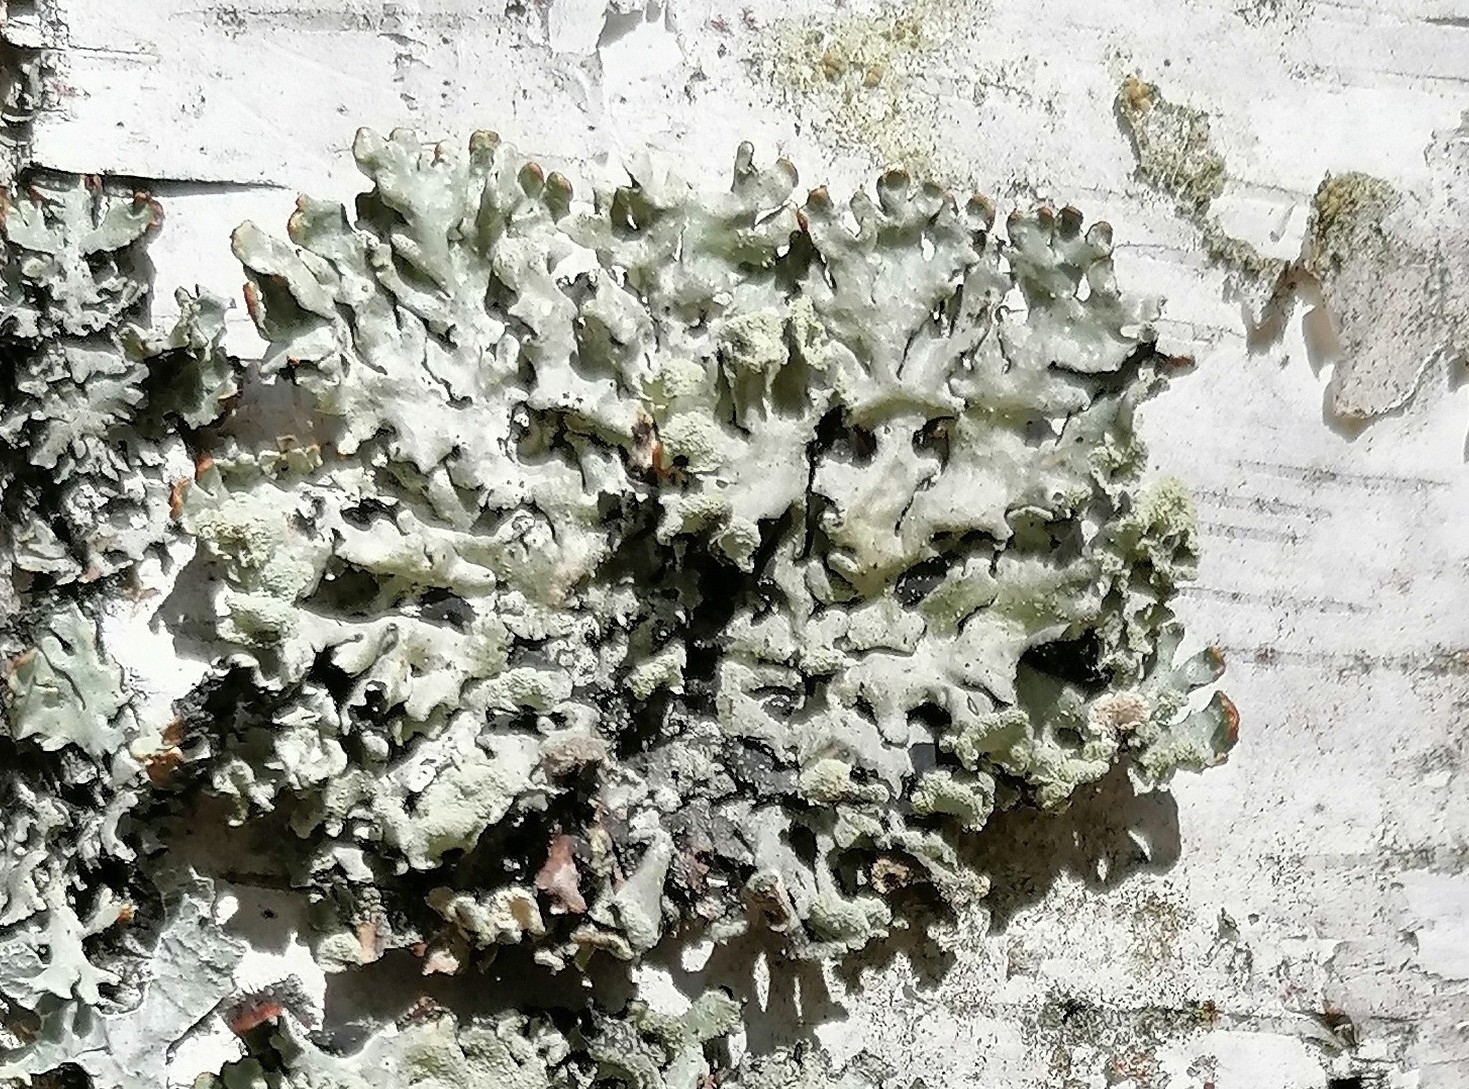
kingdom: Fungi
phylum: Ascomycota
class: Lecanoromycetes
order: Lecanorales
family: Parmeliaceae
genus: Hypogymnia
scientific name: Hypogymnia physodes
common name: Dark crottle
